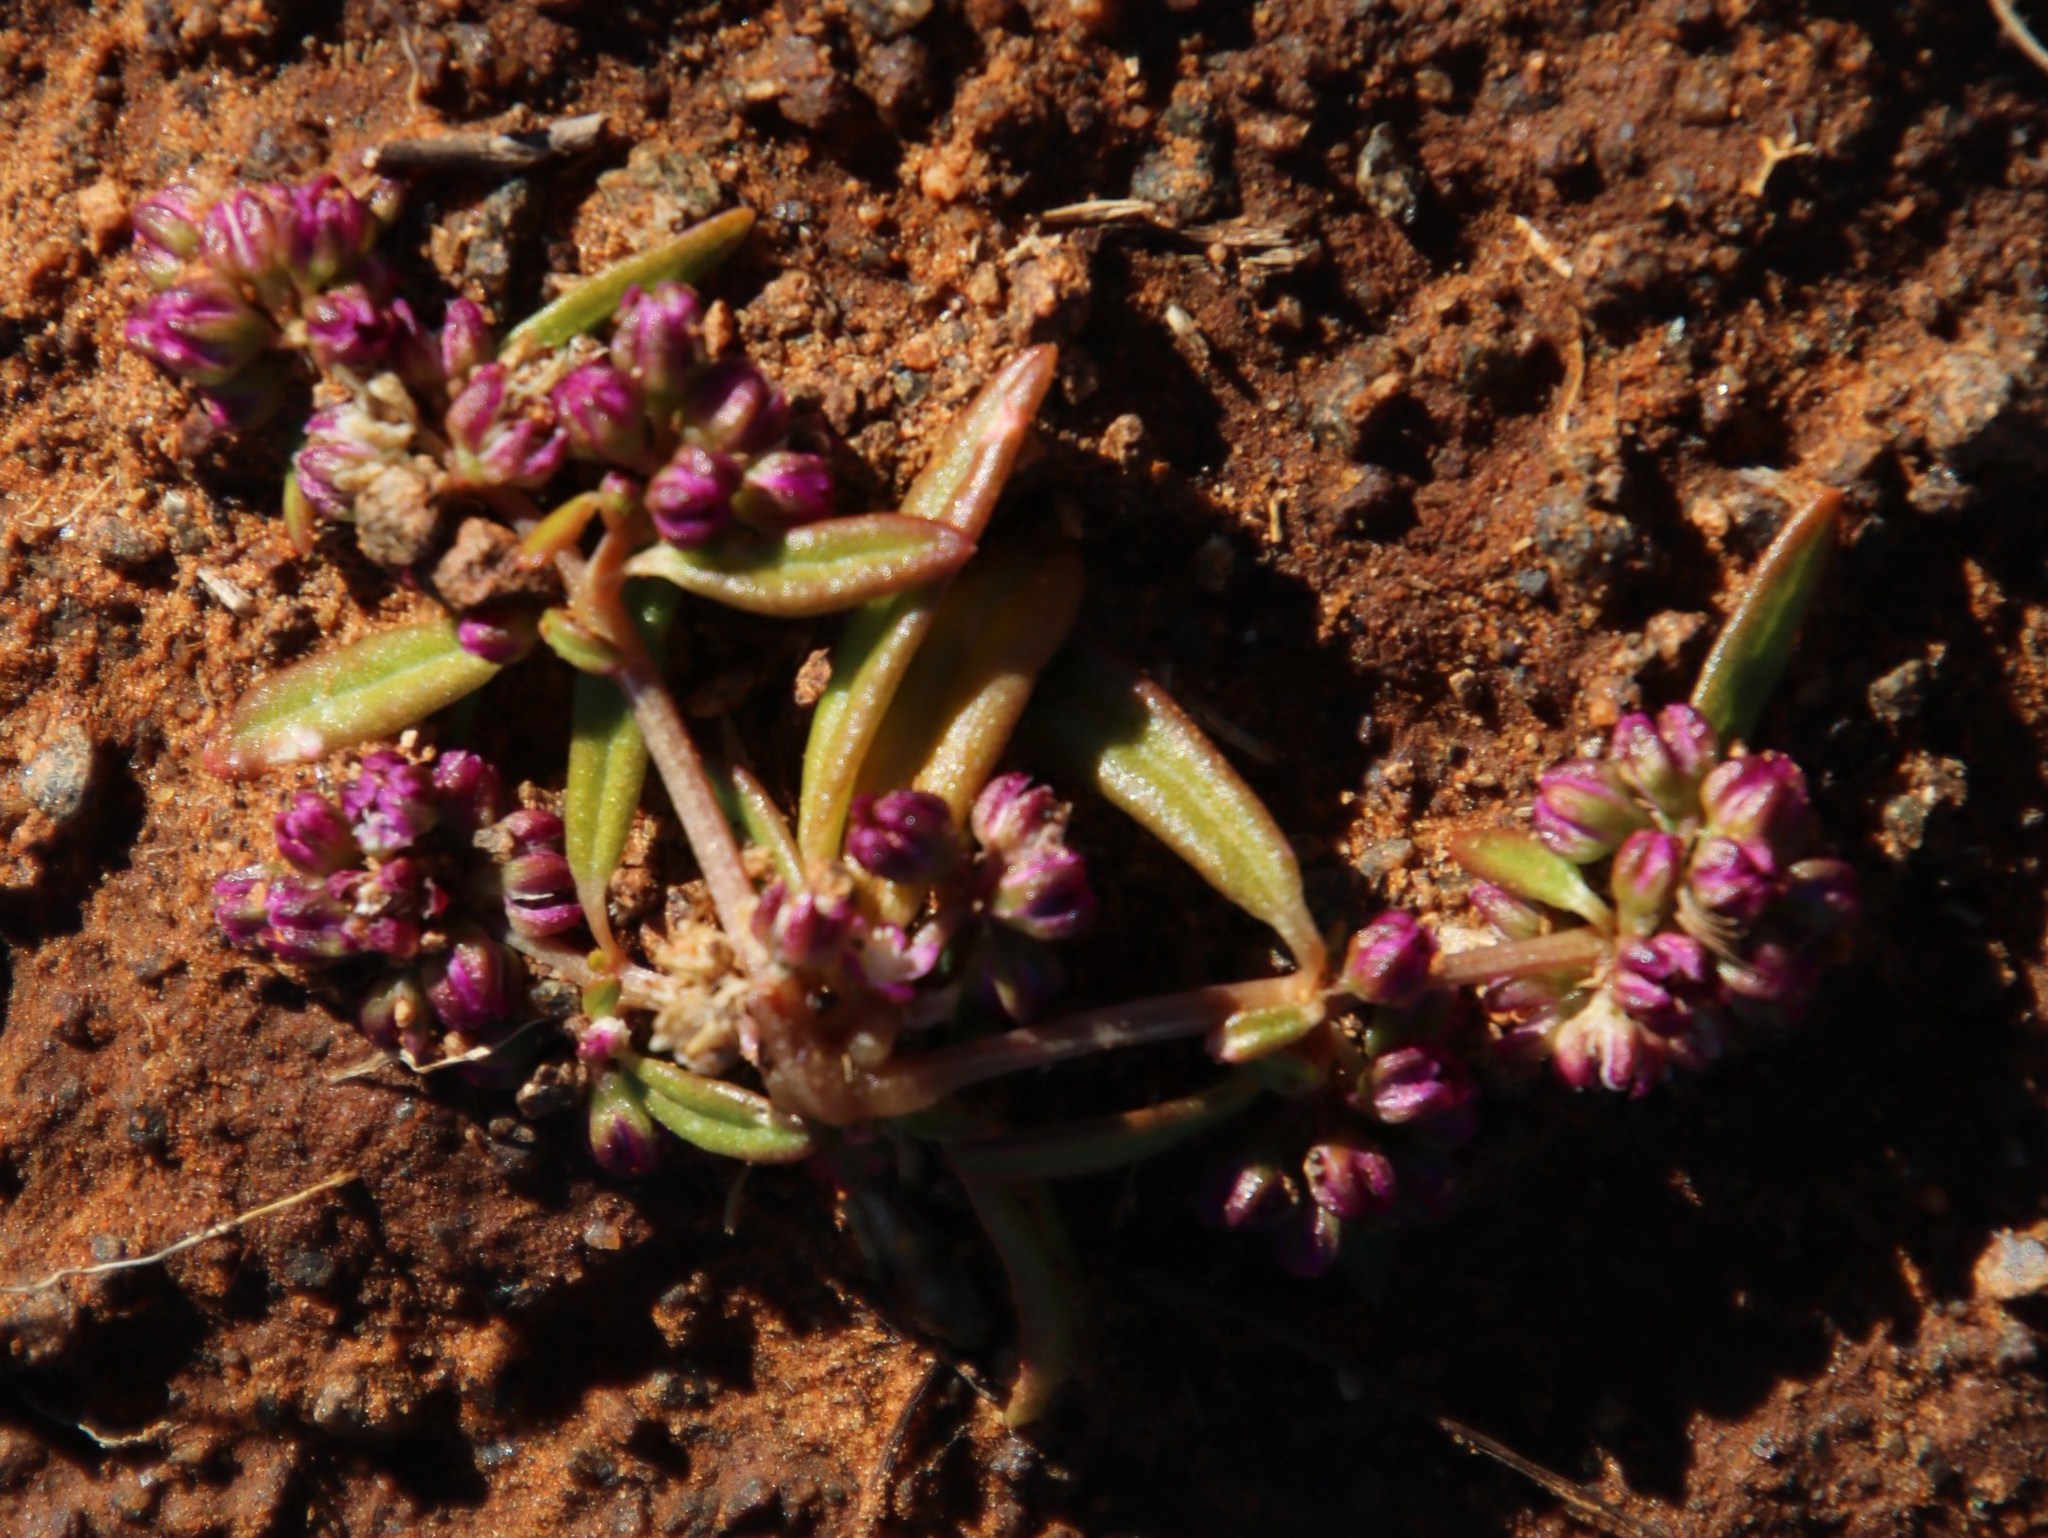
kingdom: Plantae
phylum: Tracheophyta
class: Magnoliopsida
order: Caryophyllales
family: Gisekiaceae
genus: Gisekia
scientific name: Gisekia pharnaceoides
